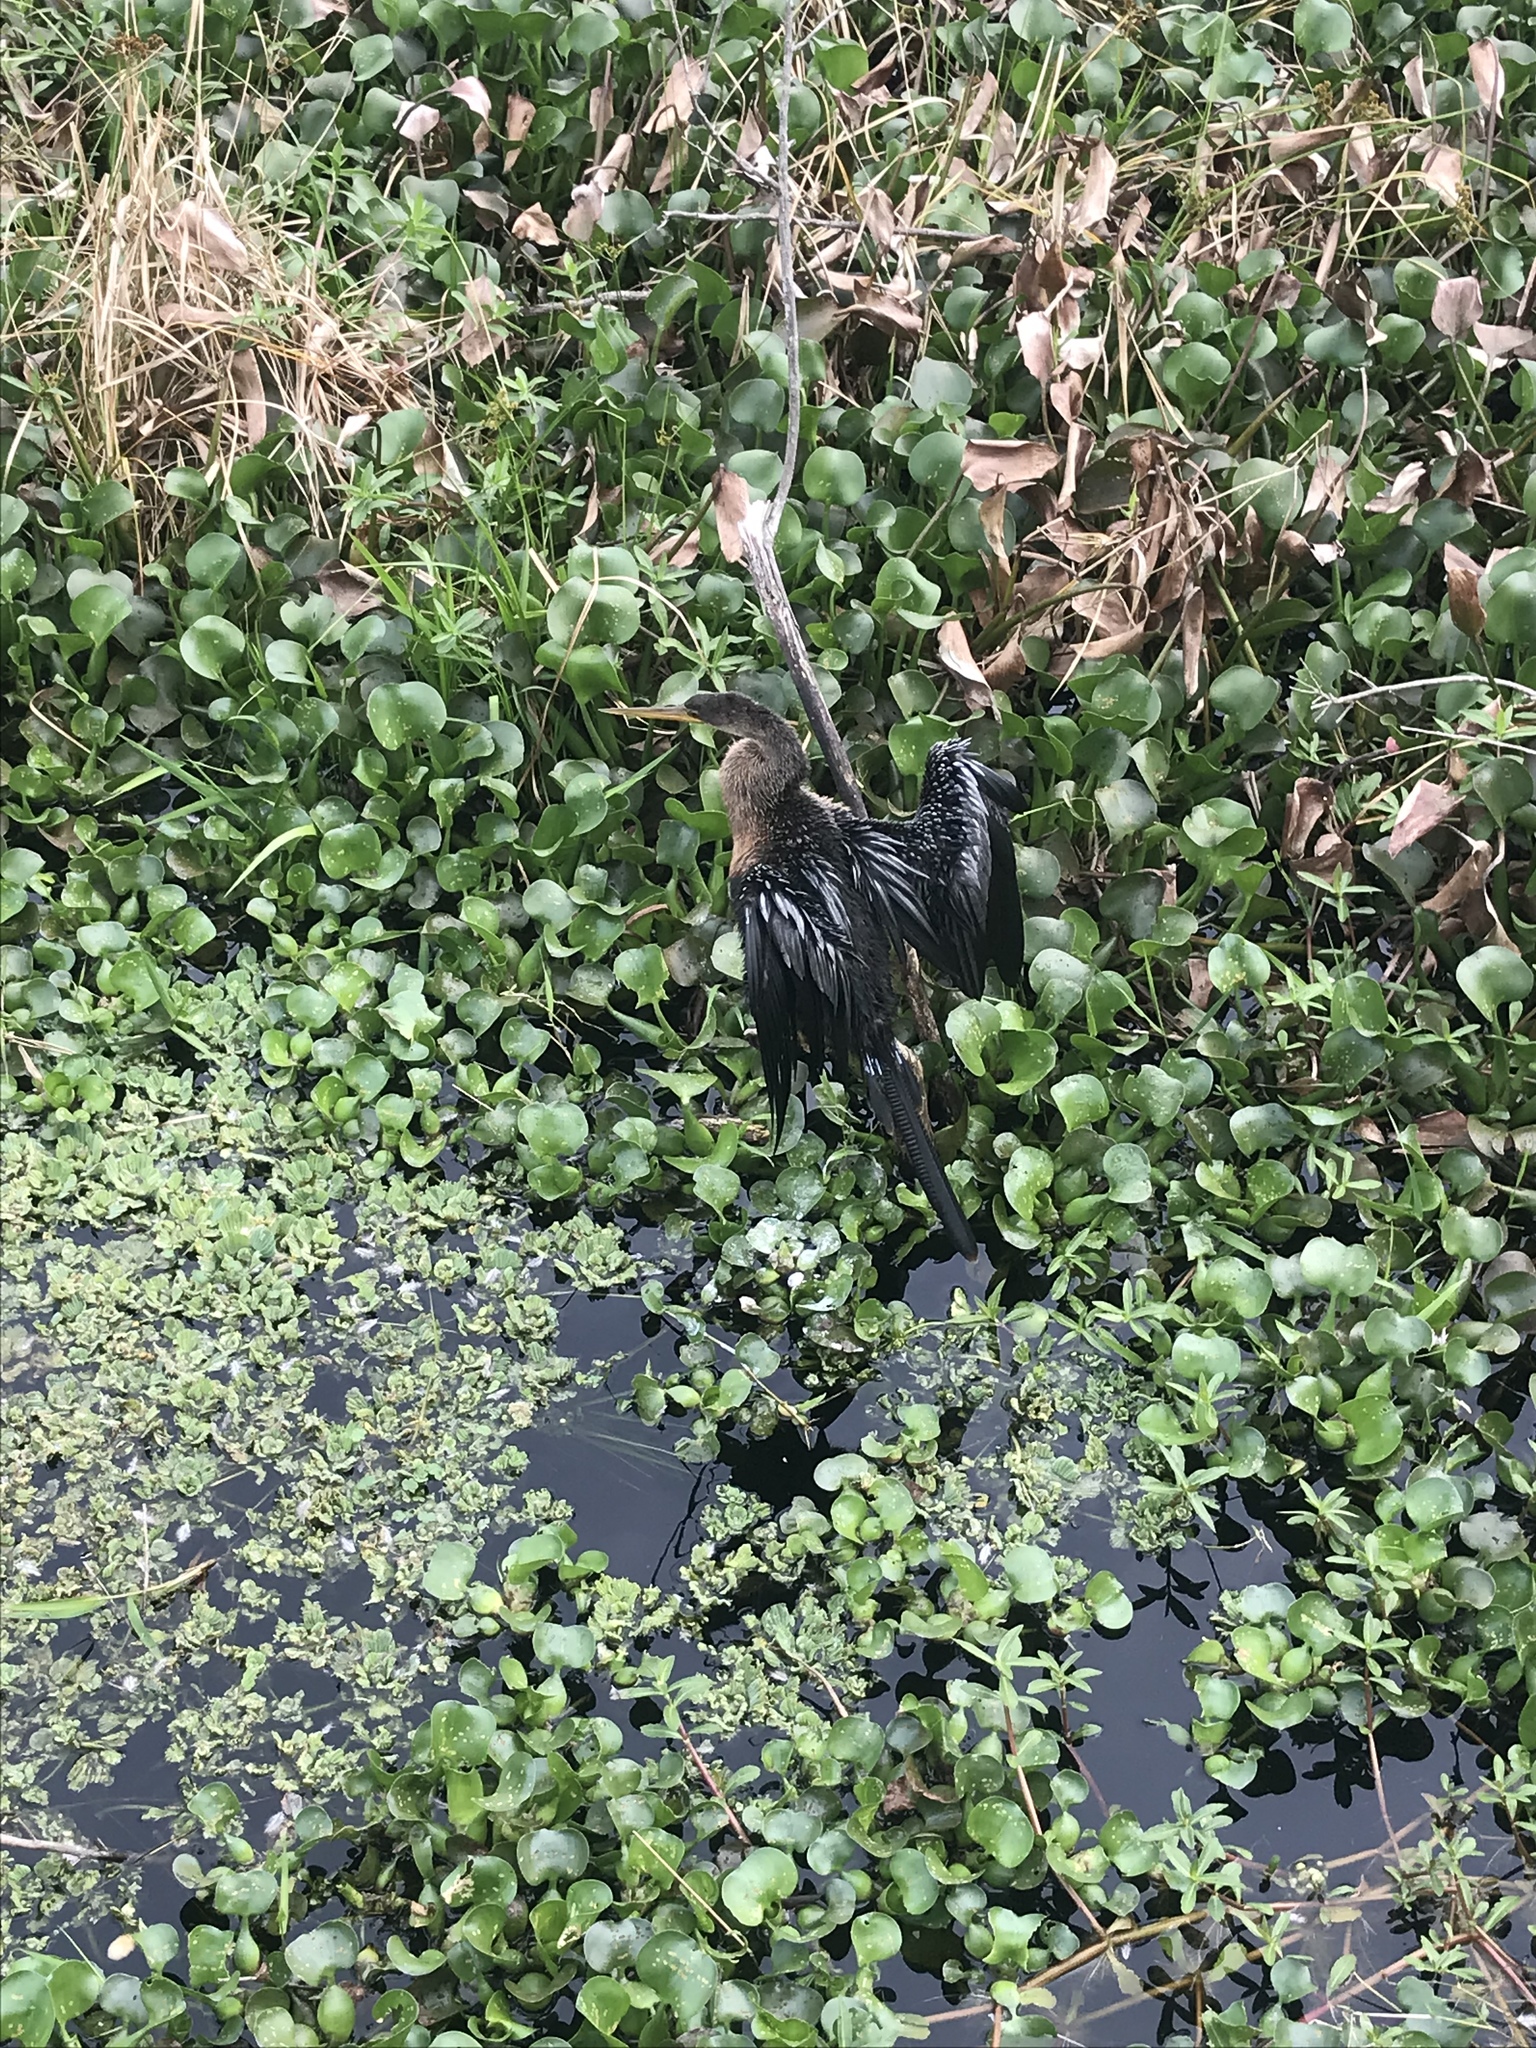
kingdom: Animalia
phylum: Chordata
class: Aves
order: Suliformes
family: Anhingidae
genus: Anhinga
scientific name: Anhinga anhinga
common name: Anhinga
